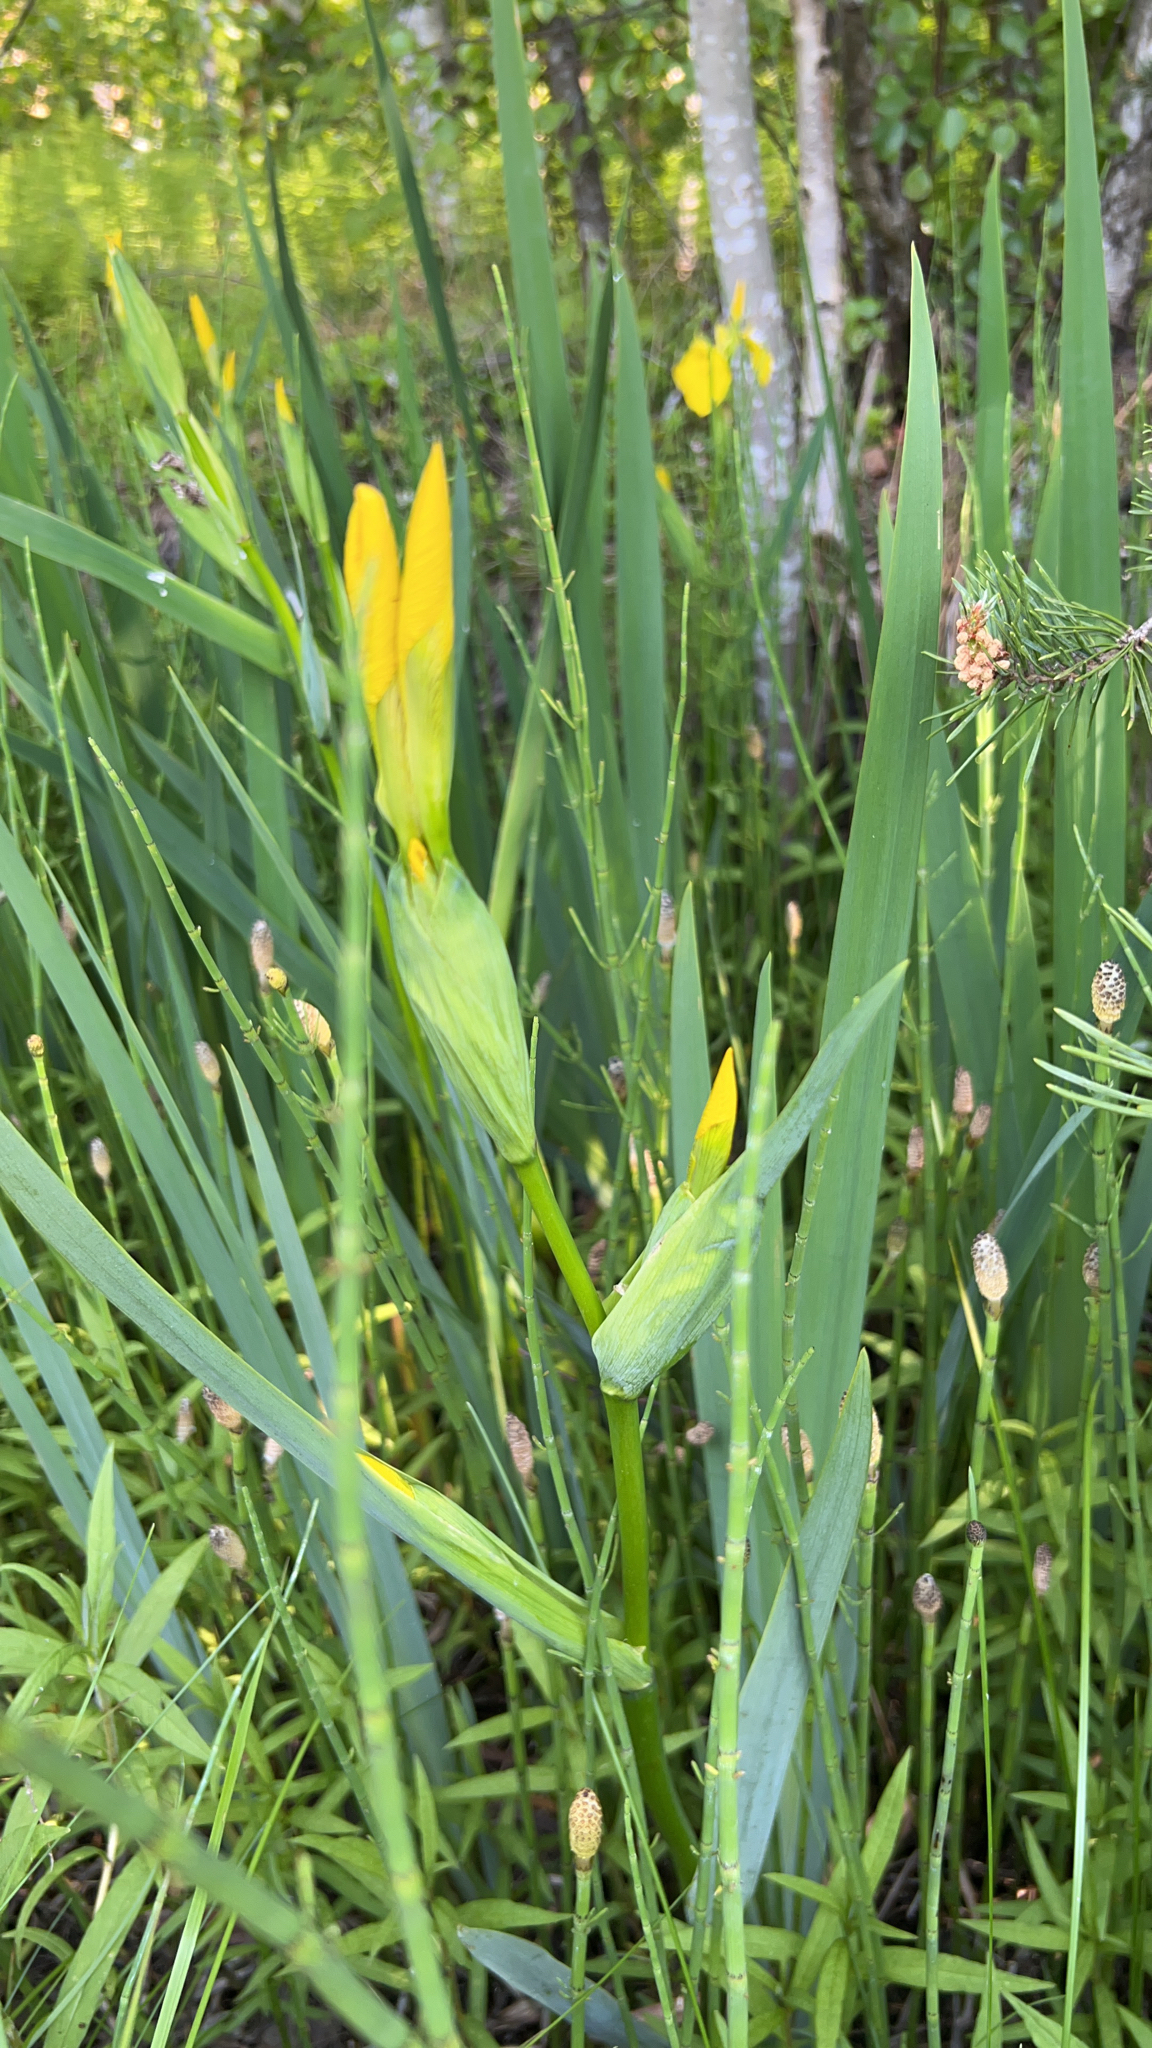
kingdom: Plantae
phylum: Tracheophyta
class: Liliopsida
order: Asparagales
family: Iridaceae
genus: Iris
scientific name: Iris pseudacorus
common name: Yellow flag
